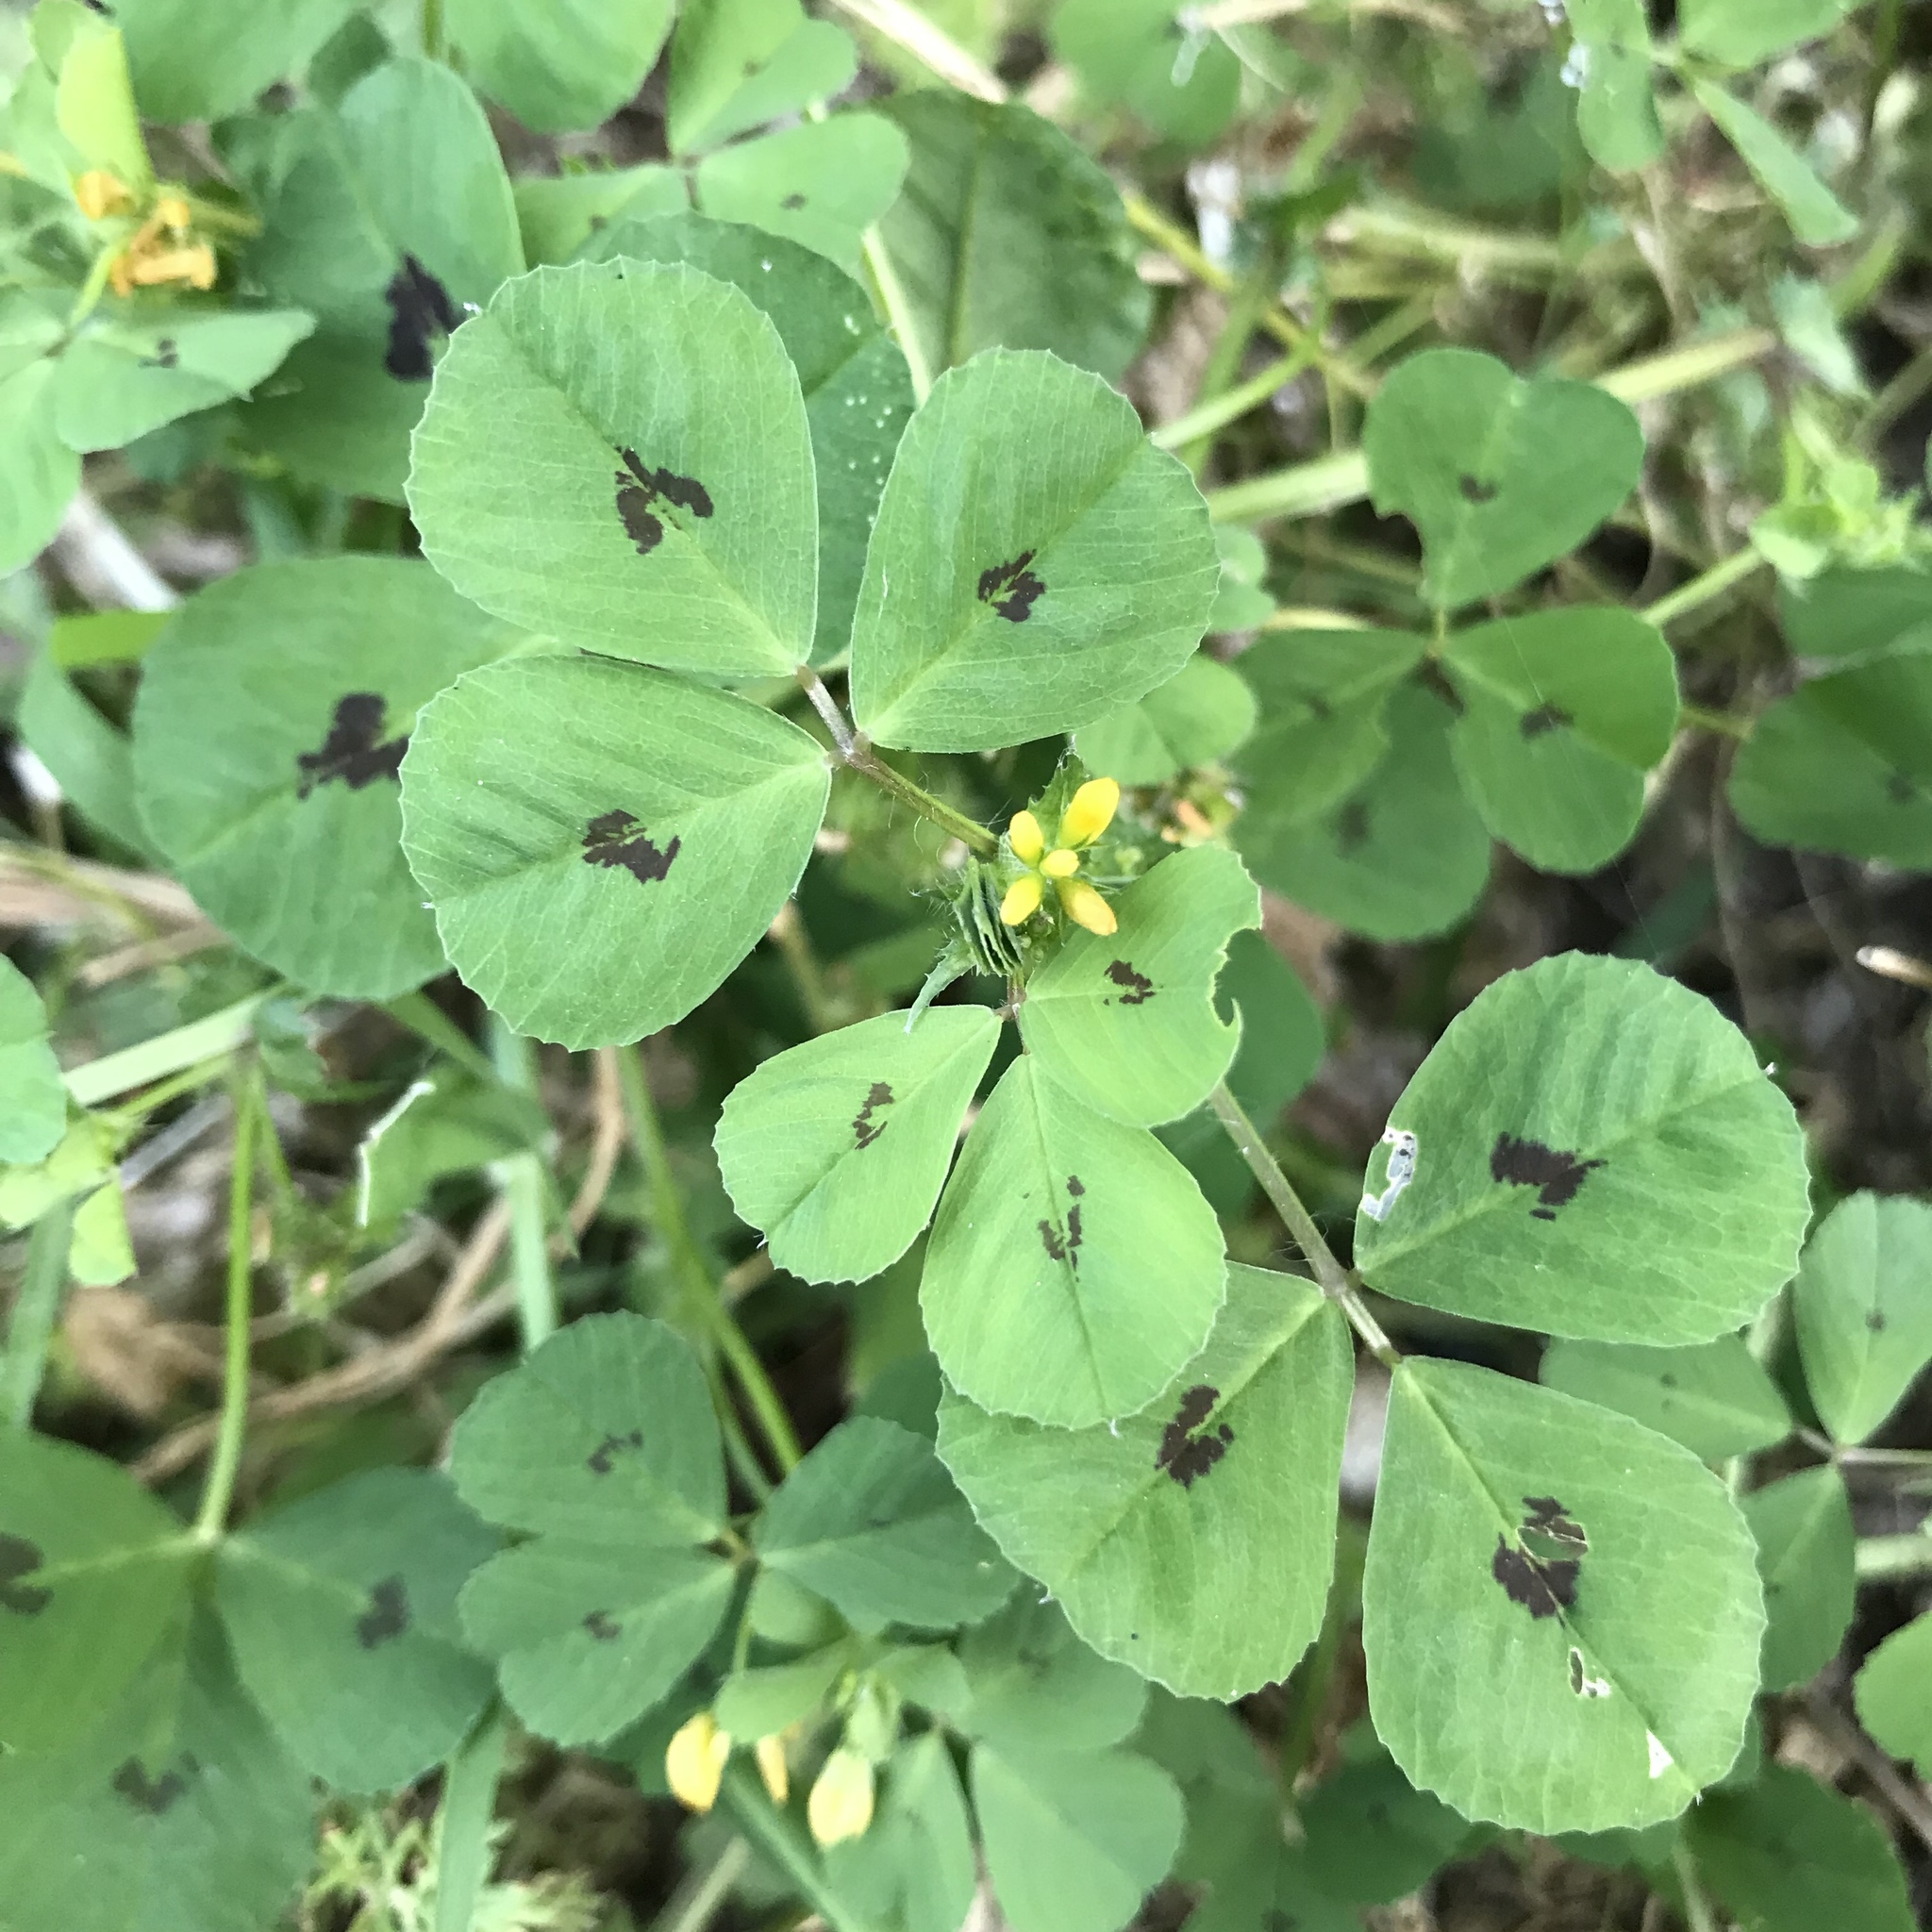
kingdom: Plantae
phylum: Tracheophyta
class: Magnoliopsida
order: Fabales
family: Fabaceae
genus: Medicago
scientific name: Medicago arabica
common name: Spotted medick
